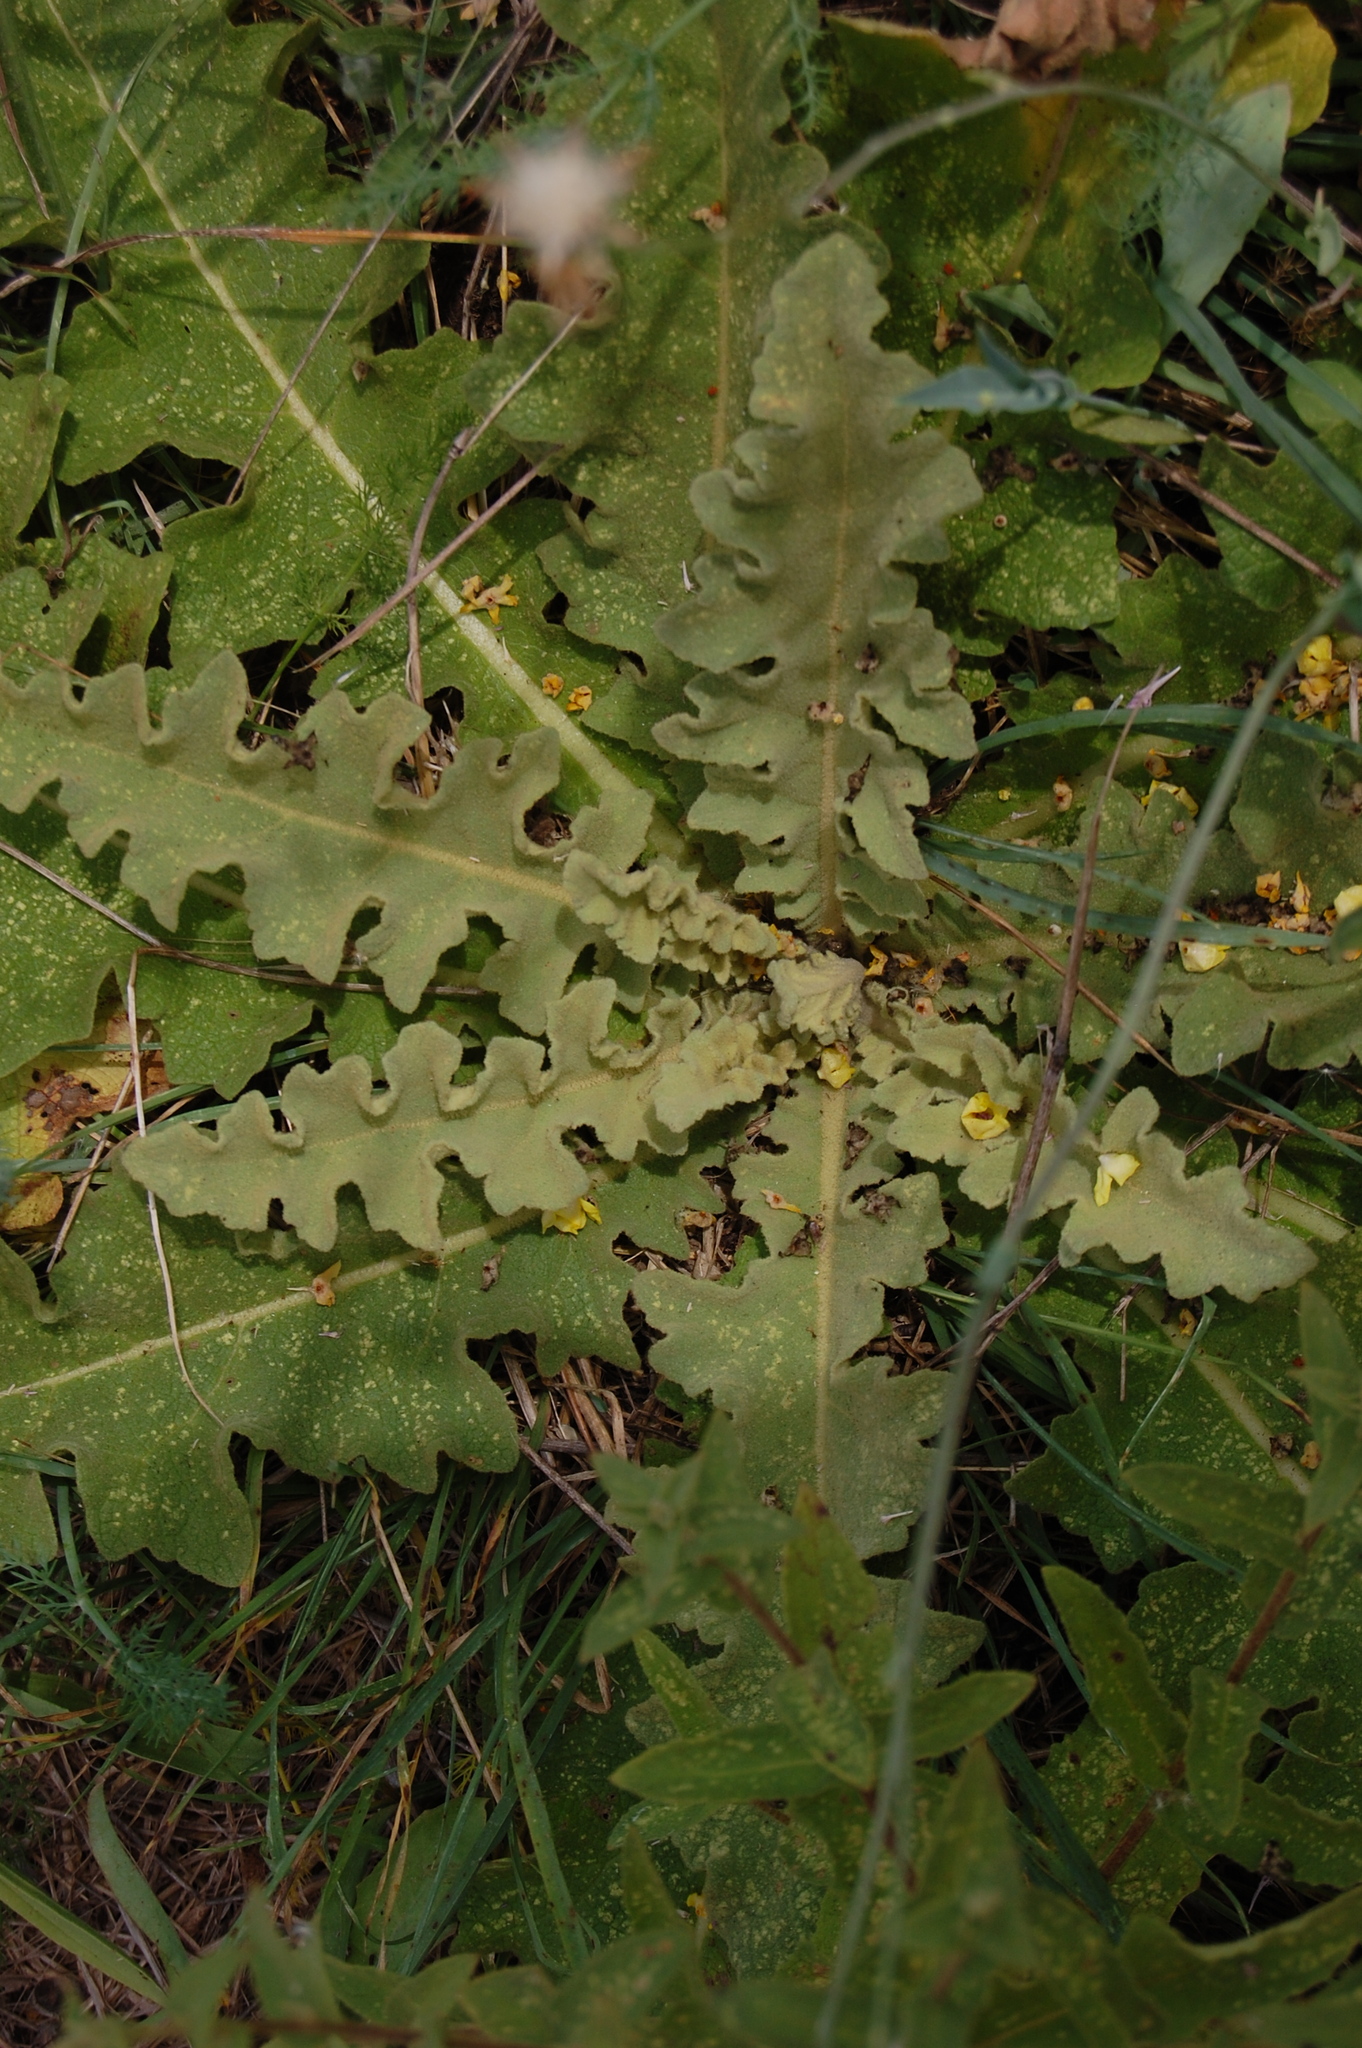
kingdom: Plantae
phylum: Tracheophyta
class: Magnoliopsida
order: Lamiales
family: Scrophulariaceae
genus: Verbascum
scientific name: Verbascum sinuatum
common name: Wavyleaf mullein
